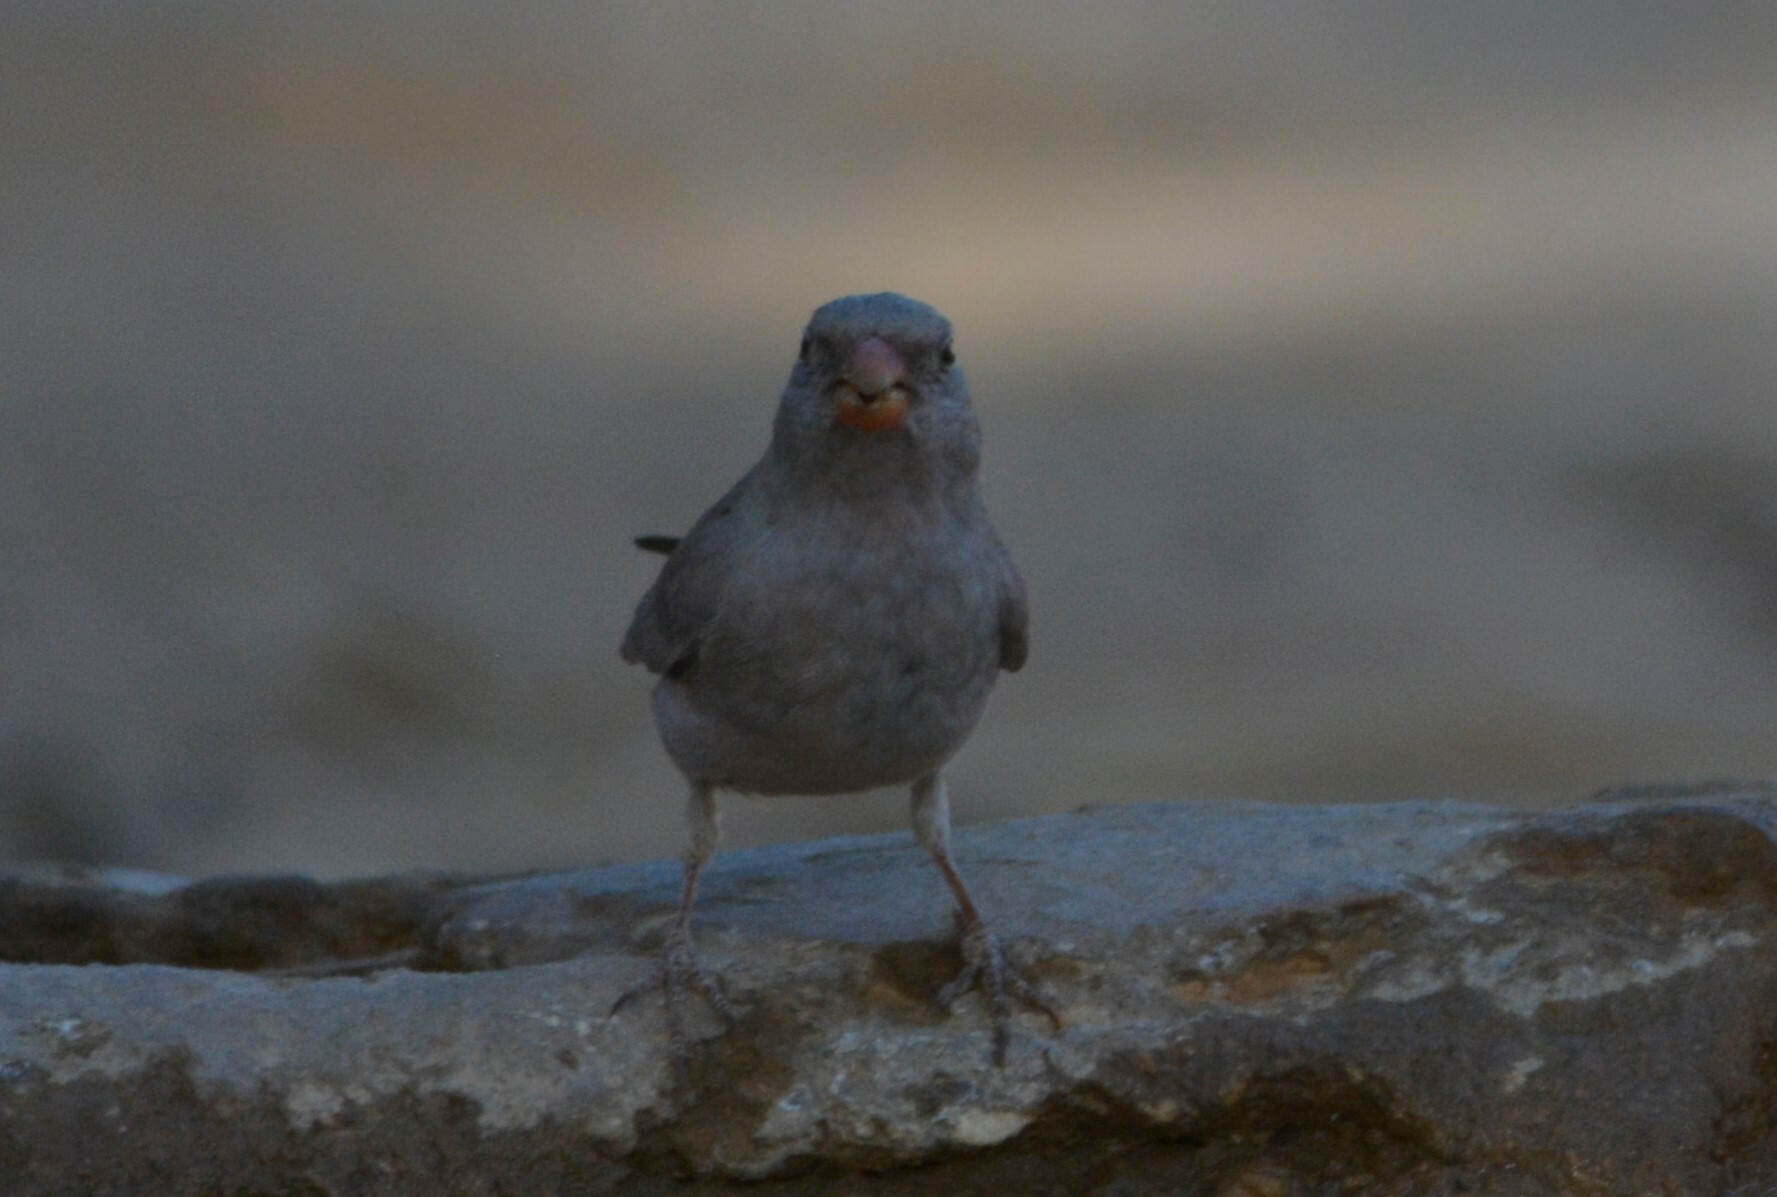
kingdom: Animalia
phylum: Chordata
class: Aves
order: Passeriformes
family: Fringillidae
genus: Bucanetes
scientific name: Bucanetes githagineus
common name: Trumpeter finch
